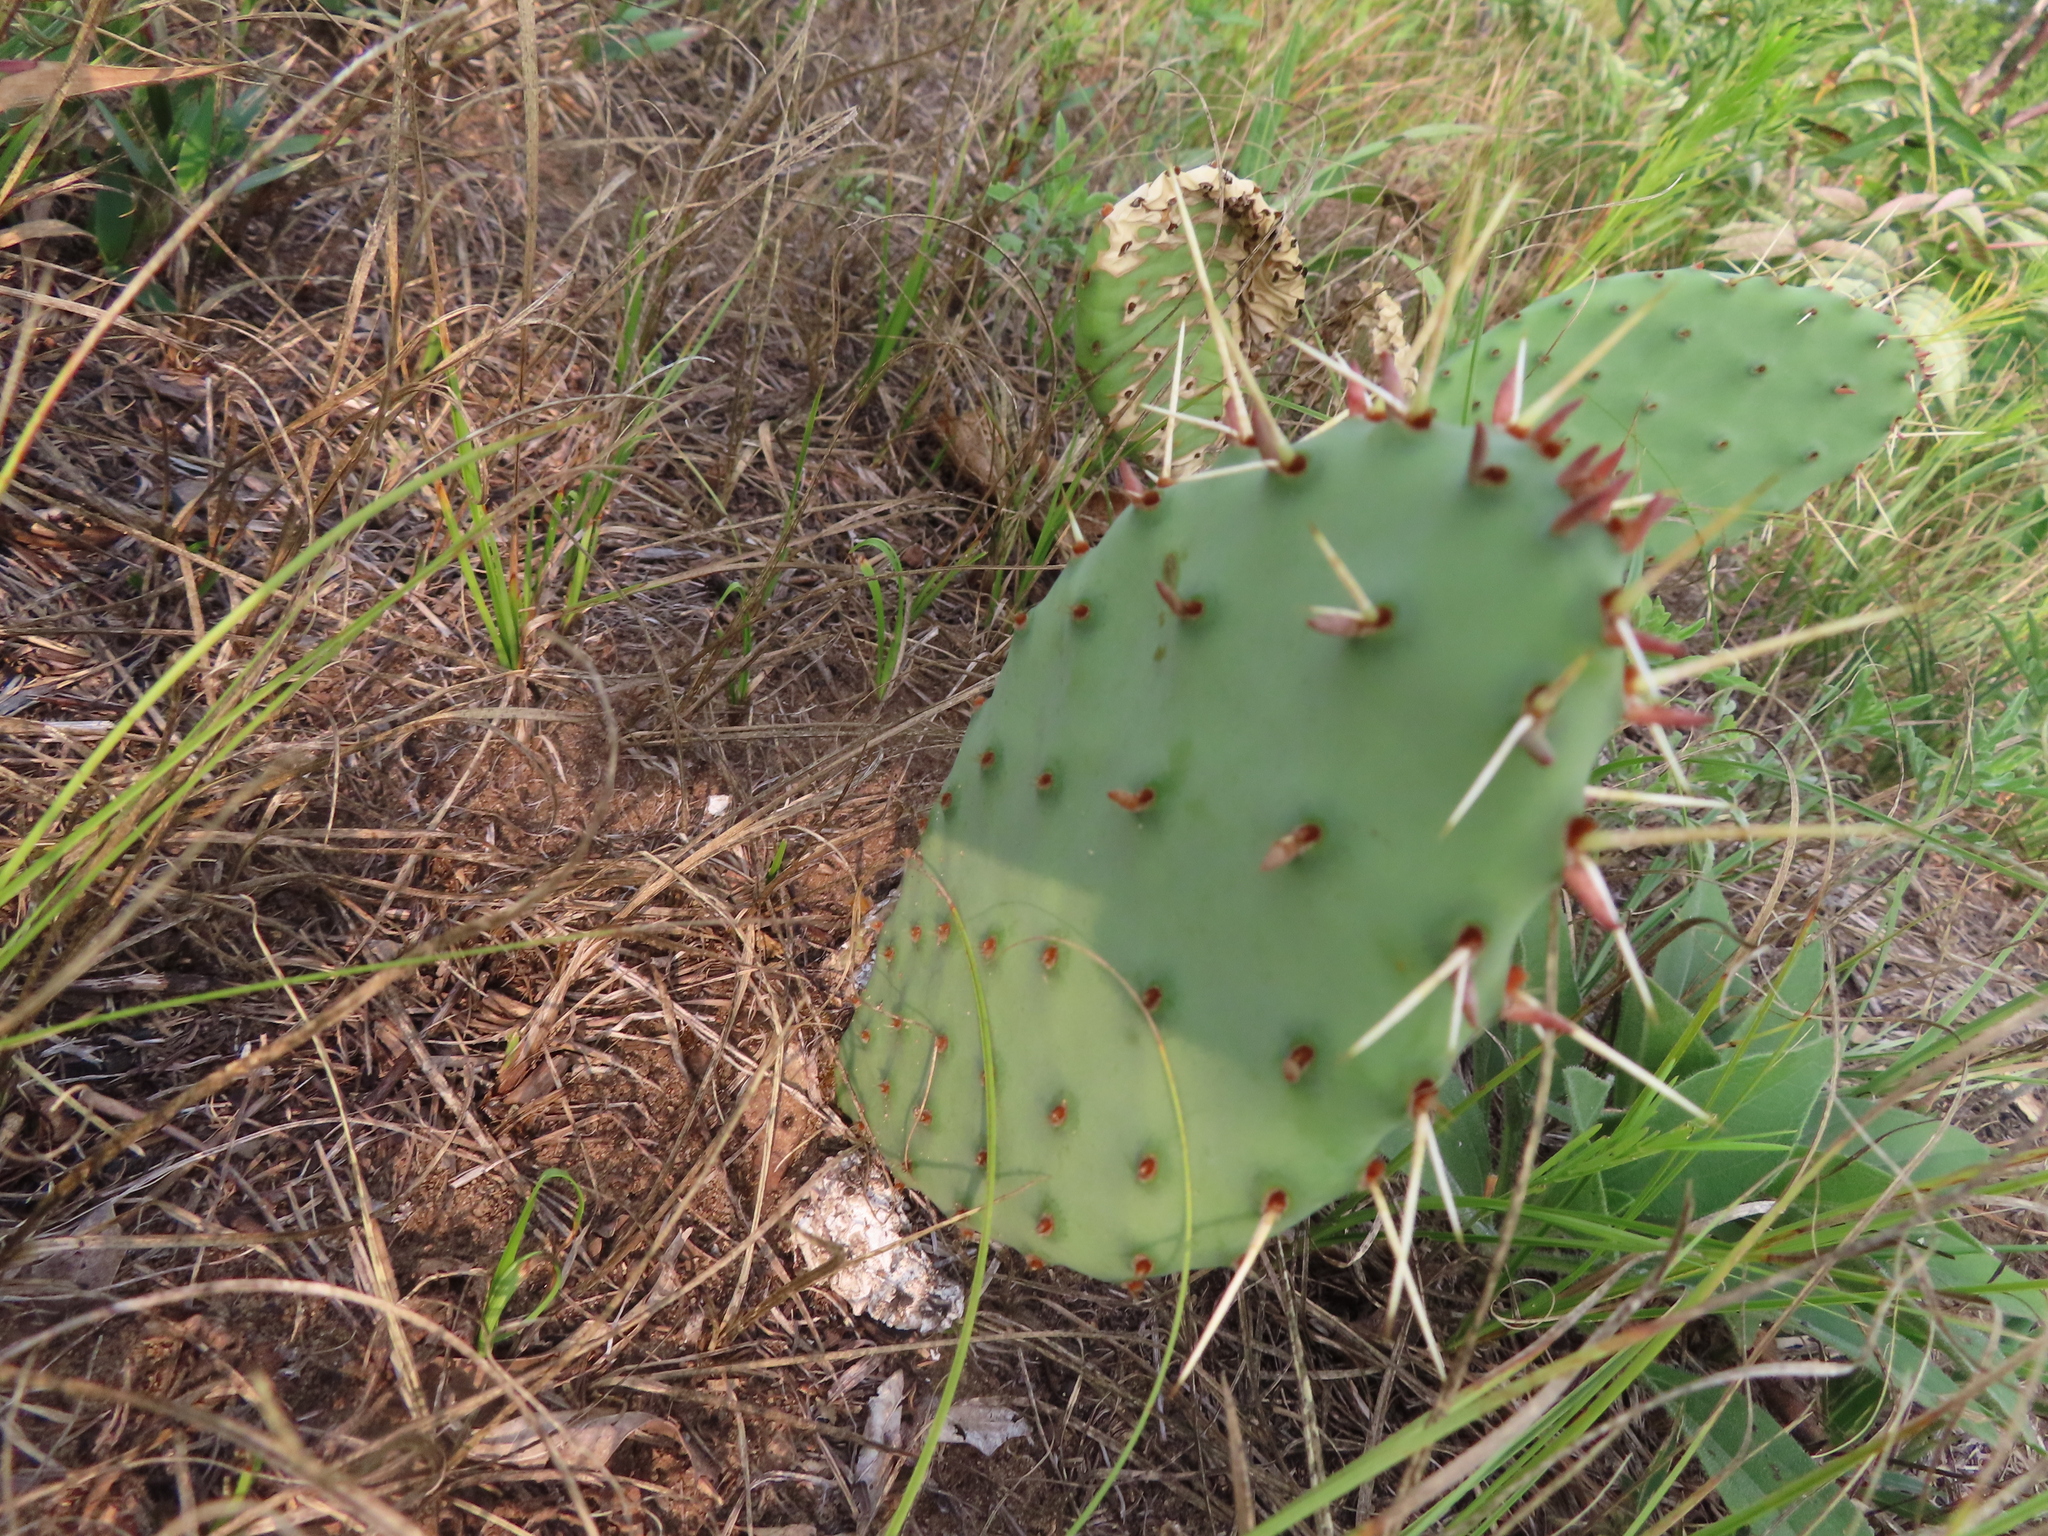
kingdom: Plantae
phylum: Tracheophyta
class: Magnoliopsida
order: Caryophyllales
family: Cactaceae
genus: Opuntia
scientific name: Opuntia macrorhiza
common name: Grassland pricklypear
